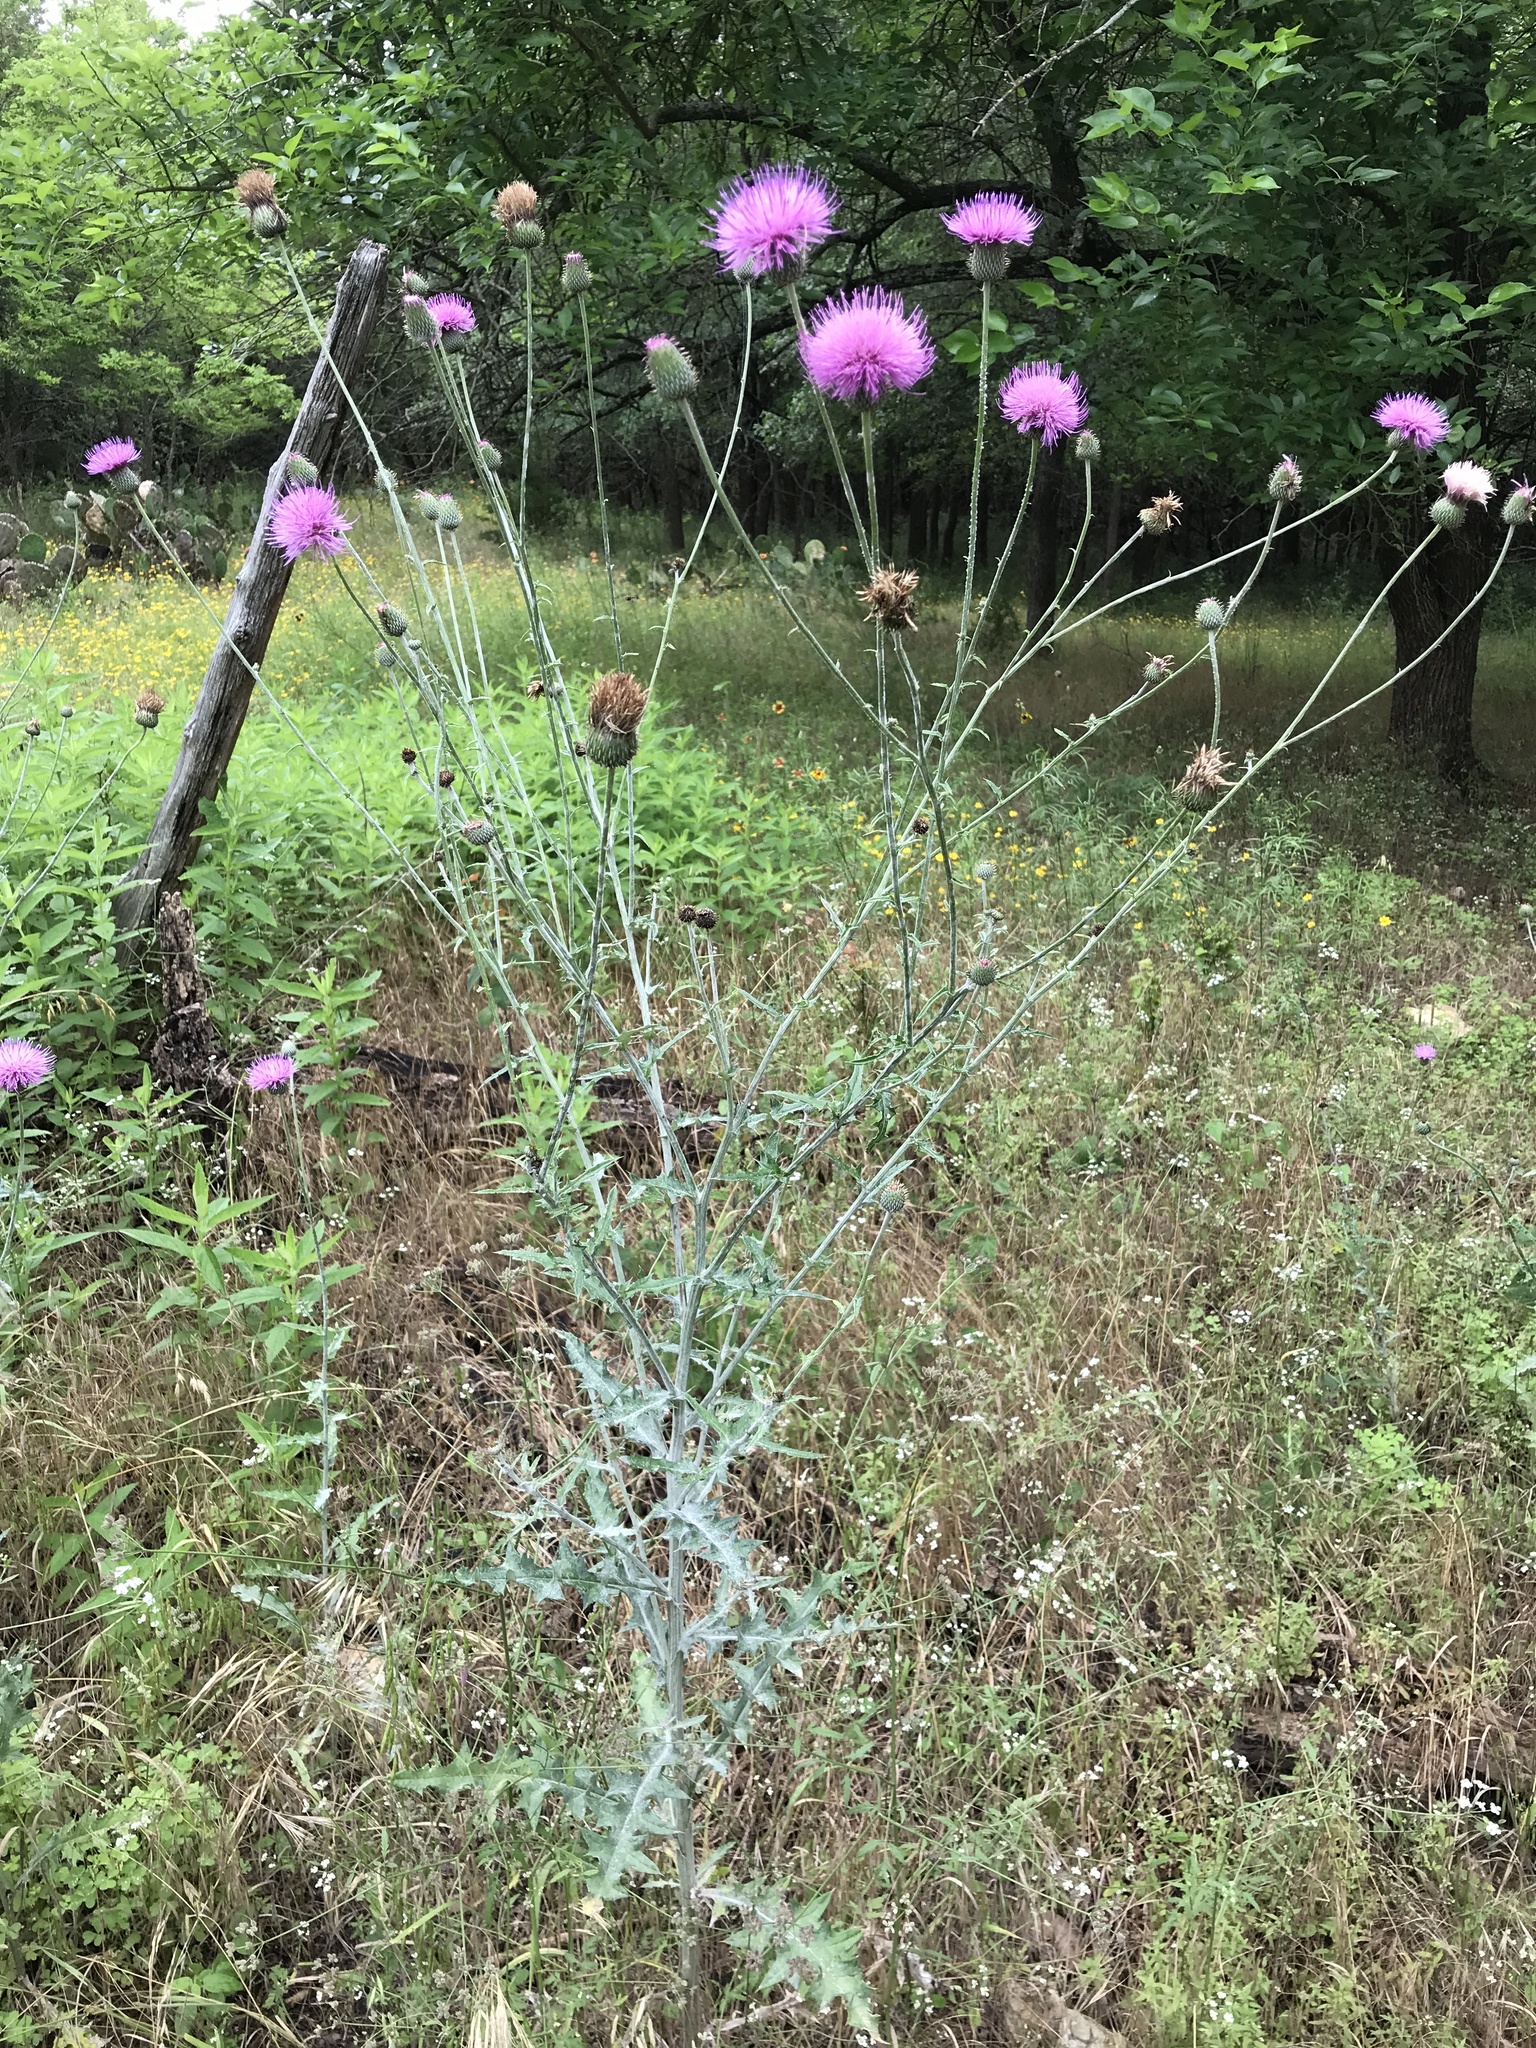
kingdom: Plantae
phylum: Tracheophyta
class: Magnoliopsida
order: Asterales
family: Asteraceae
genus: Cirsium
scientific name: Cirsium texanum
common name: Texas purple thistle
